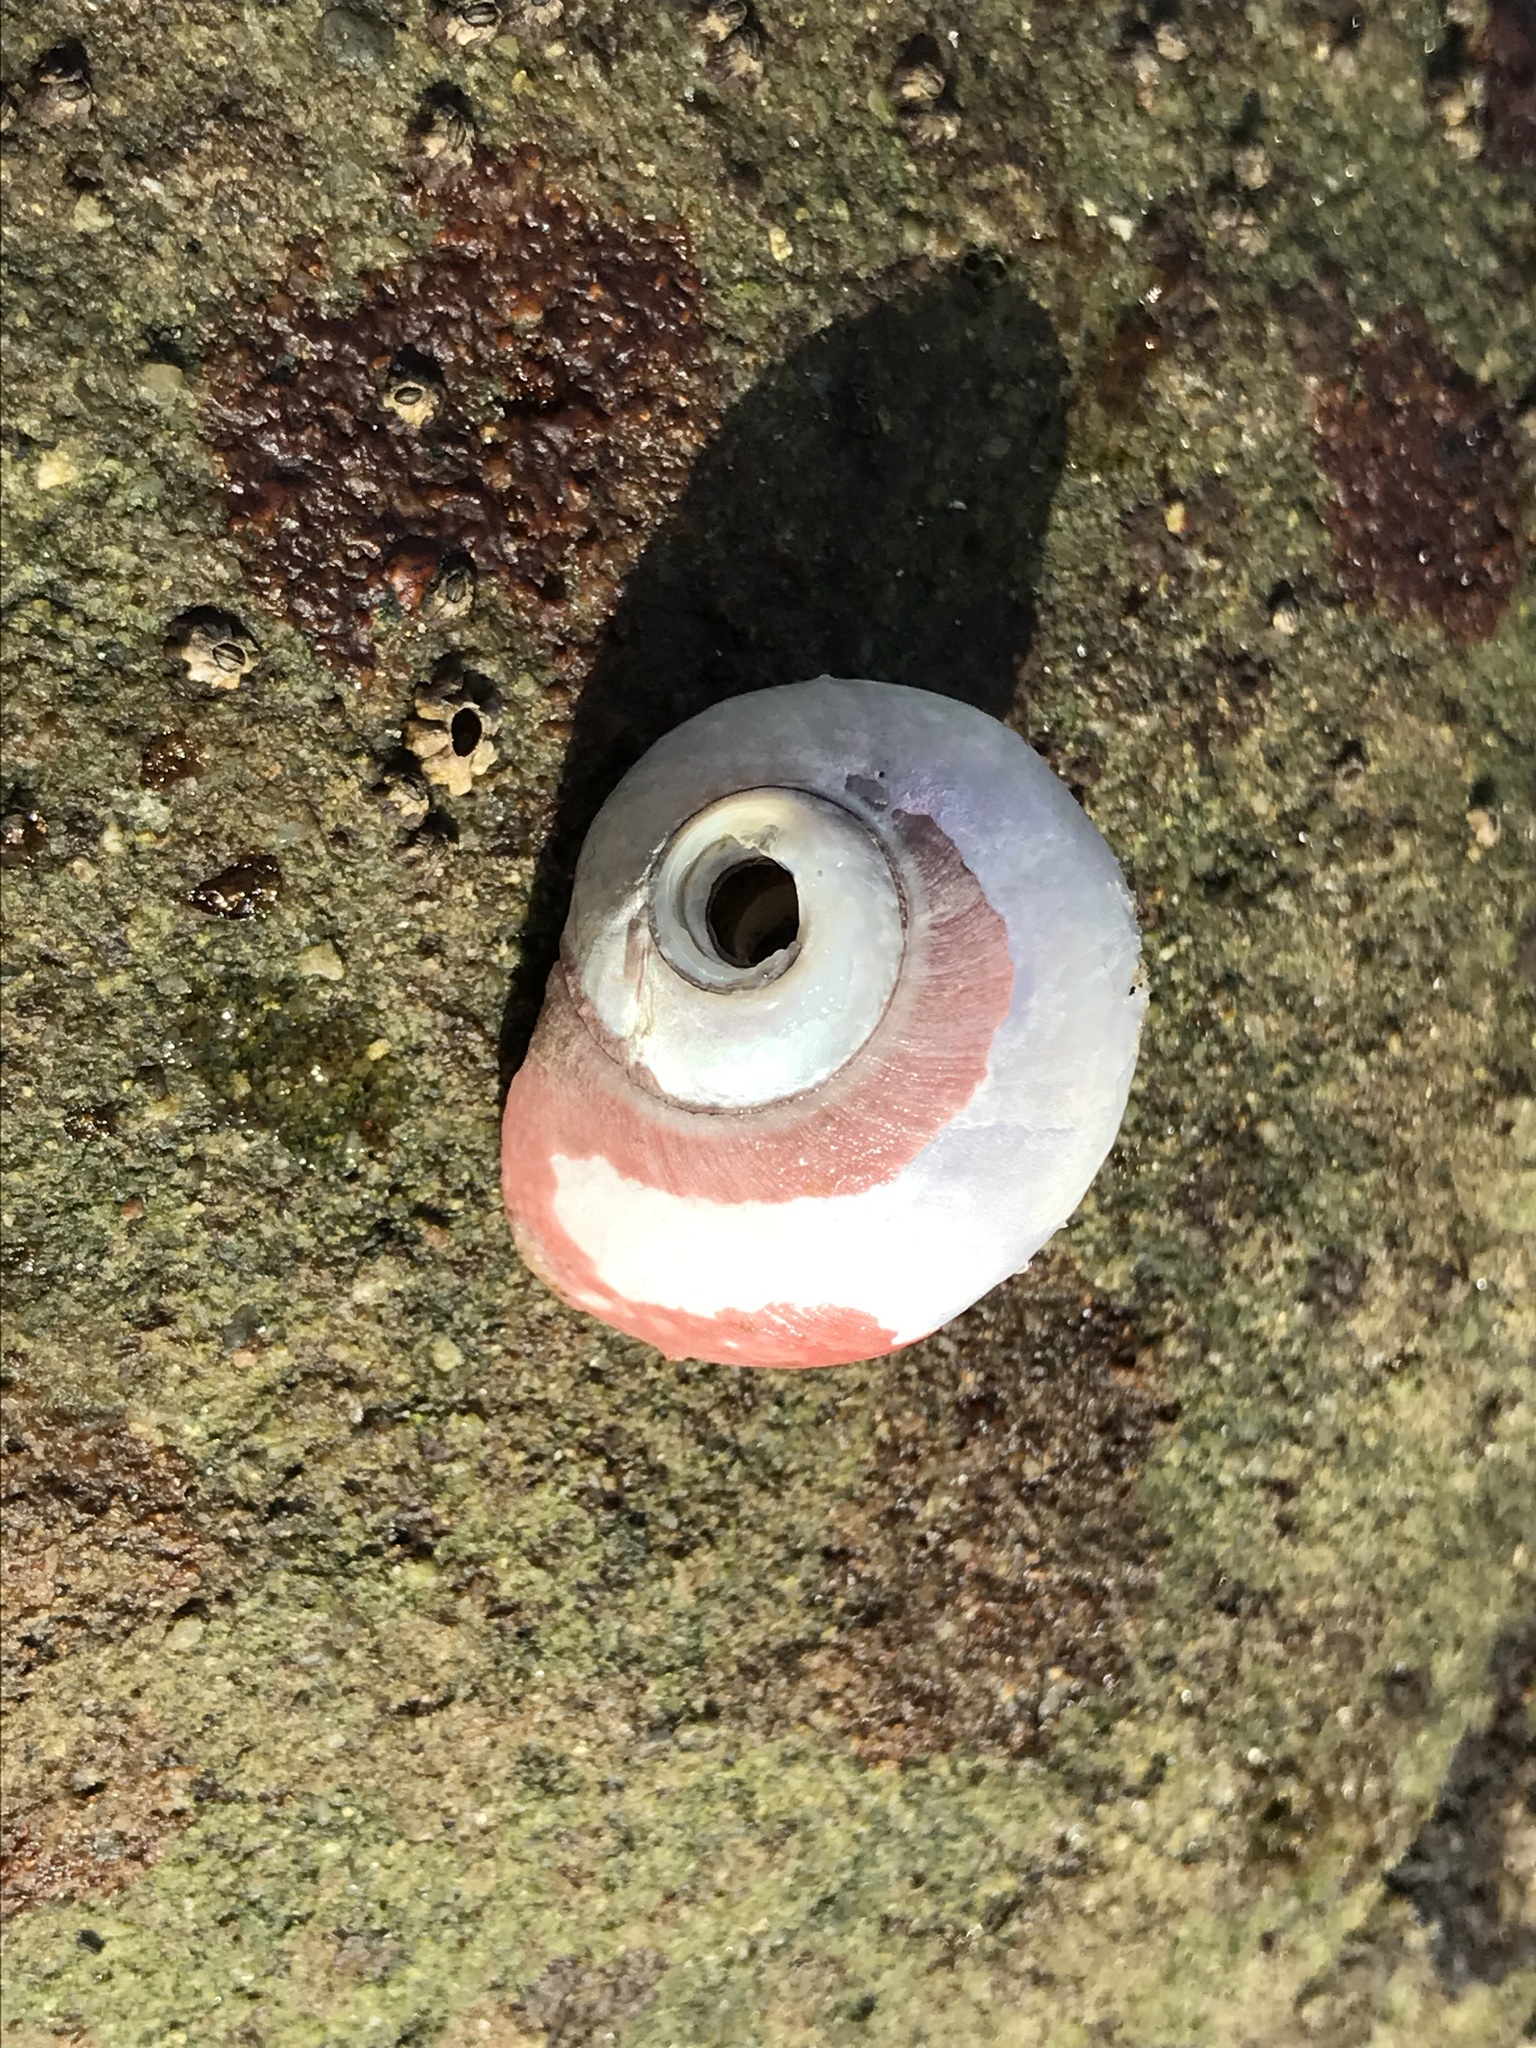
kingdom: Animalia
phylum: Mollusca
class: Gastropoda
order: Trochida
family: Tegulidae
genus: Norrisia
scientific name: Norrisia norrisii
